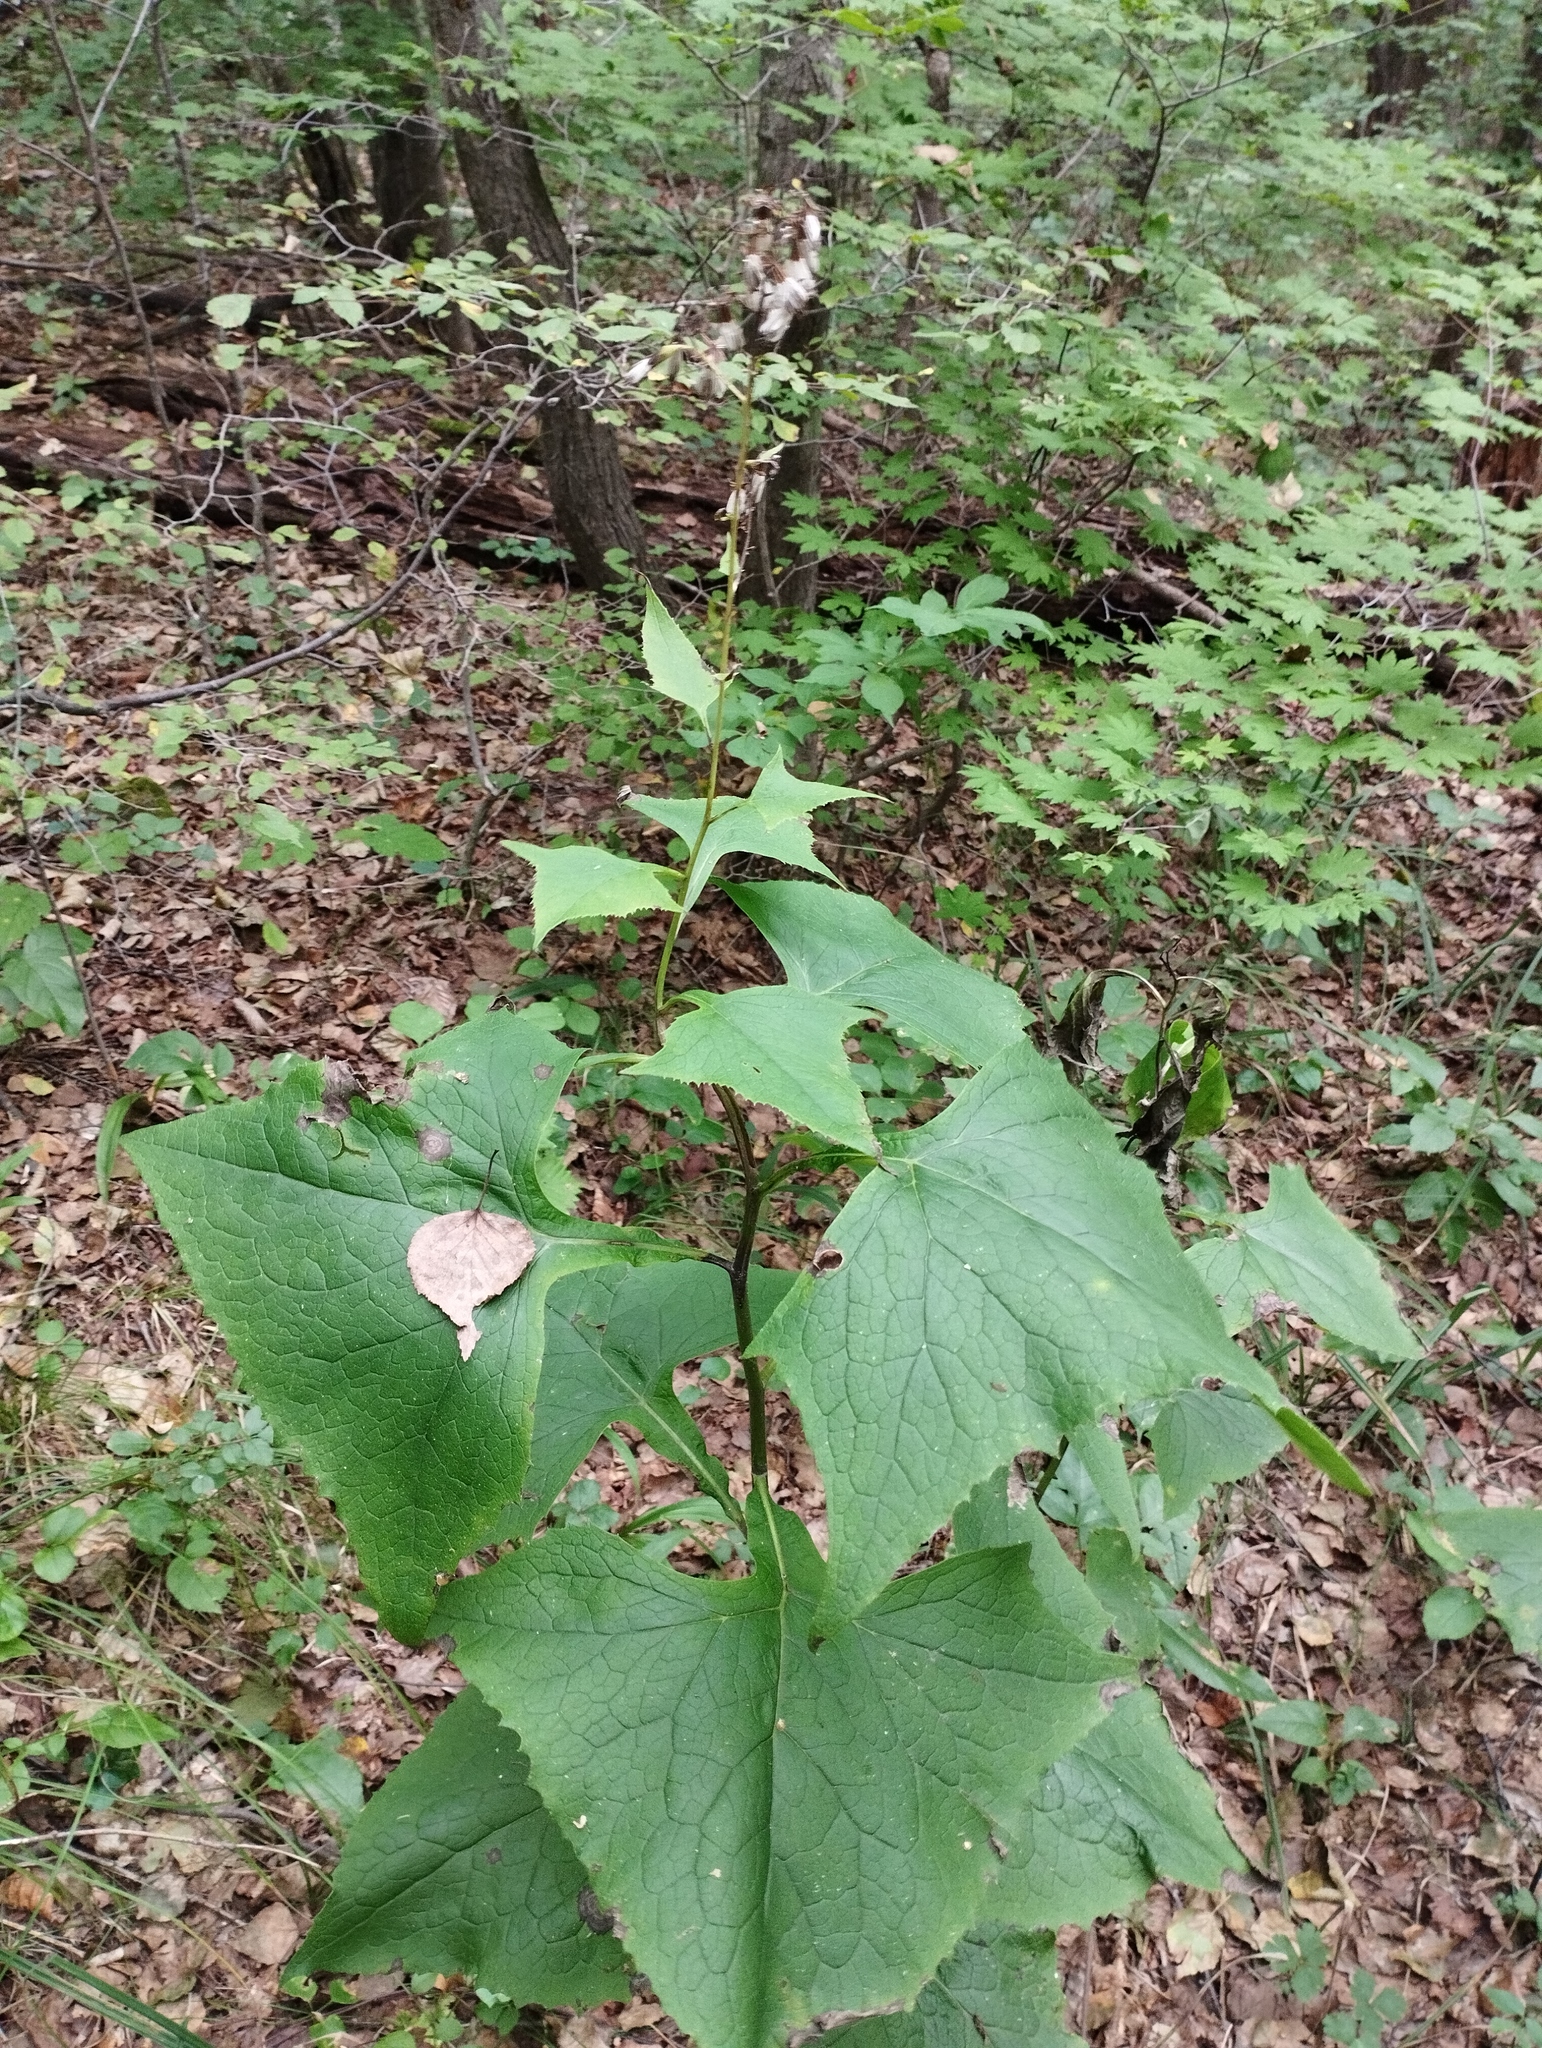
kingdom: Plantae
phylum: Tracheophyta
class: Magnoliopsida
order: Asterales
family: Asteraceae
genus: Parasenecio
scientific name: Parasenecio hastatus
